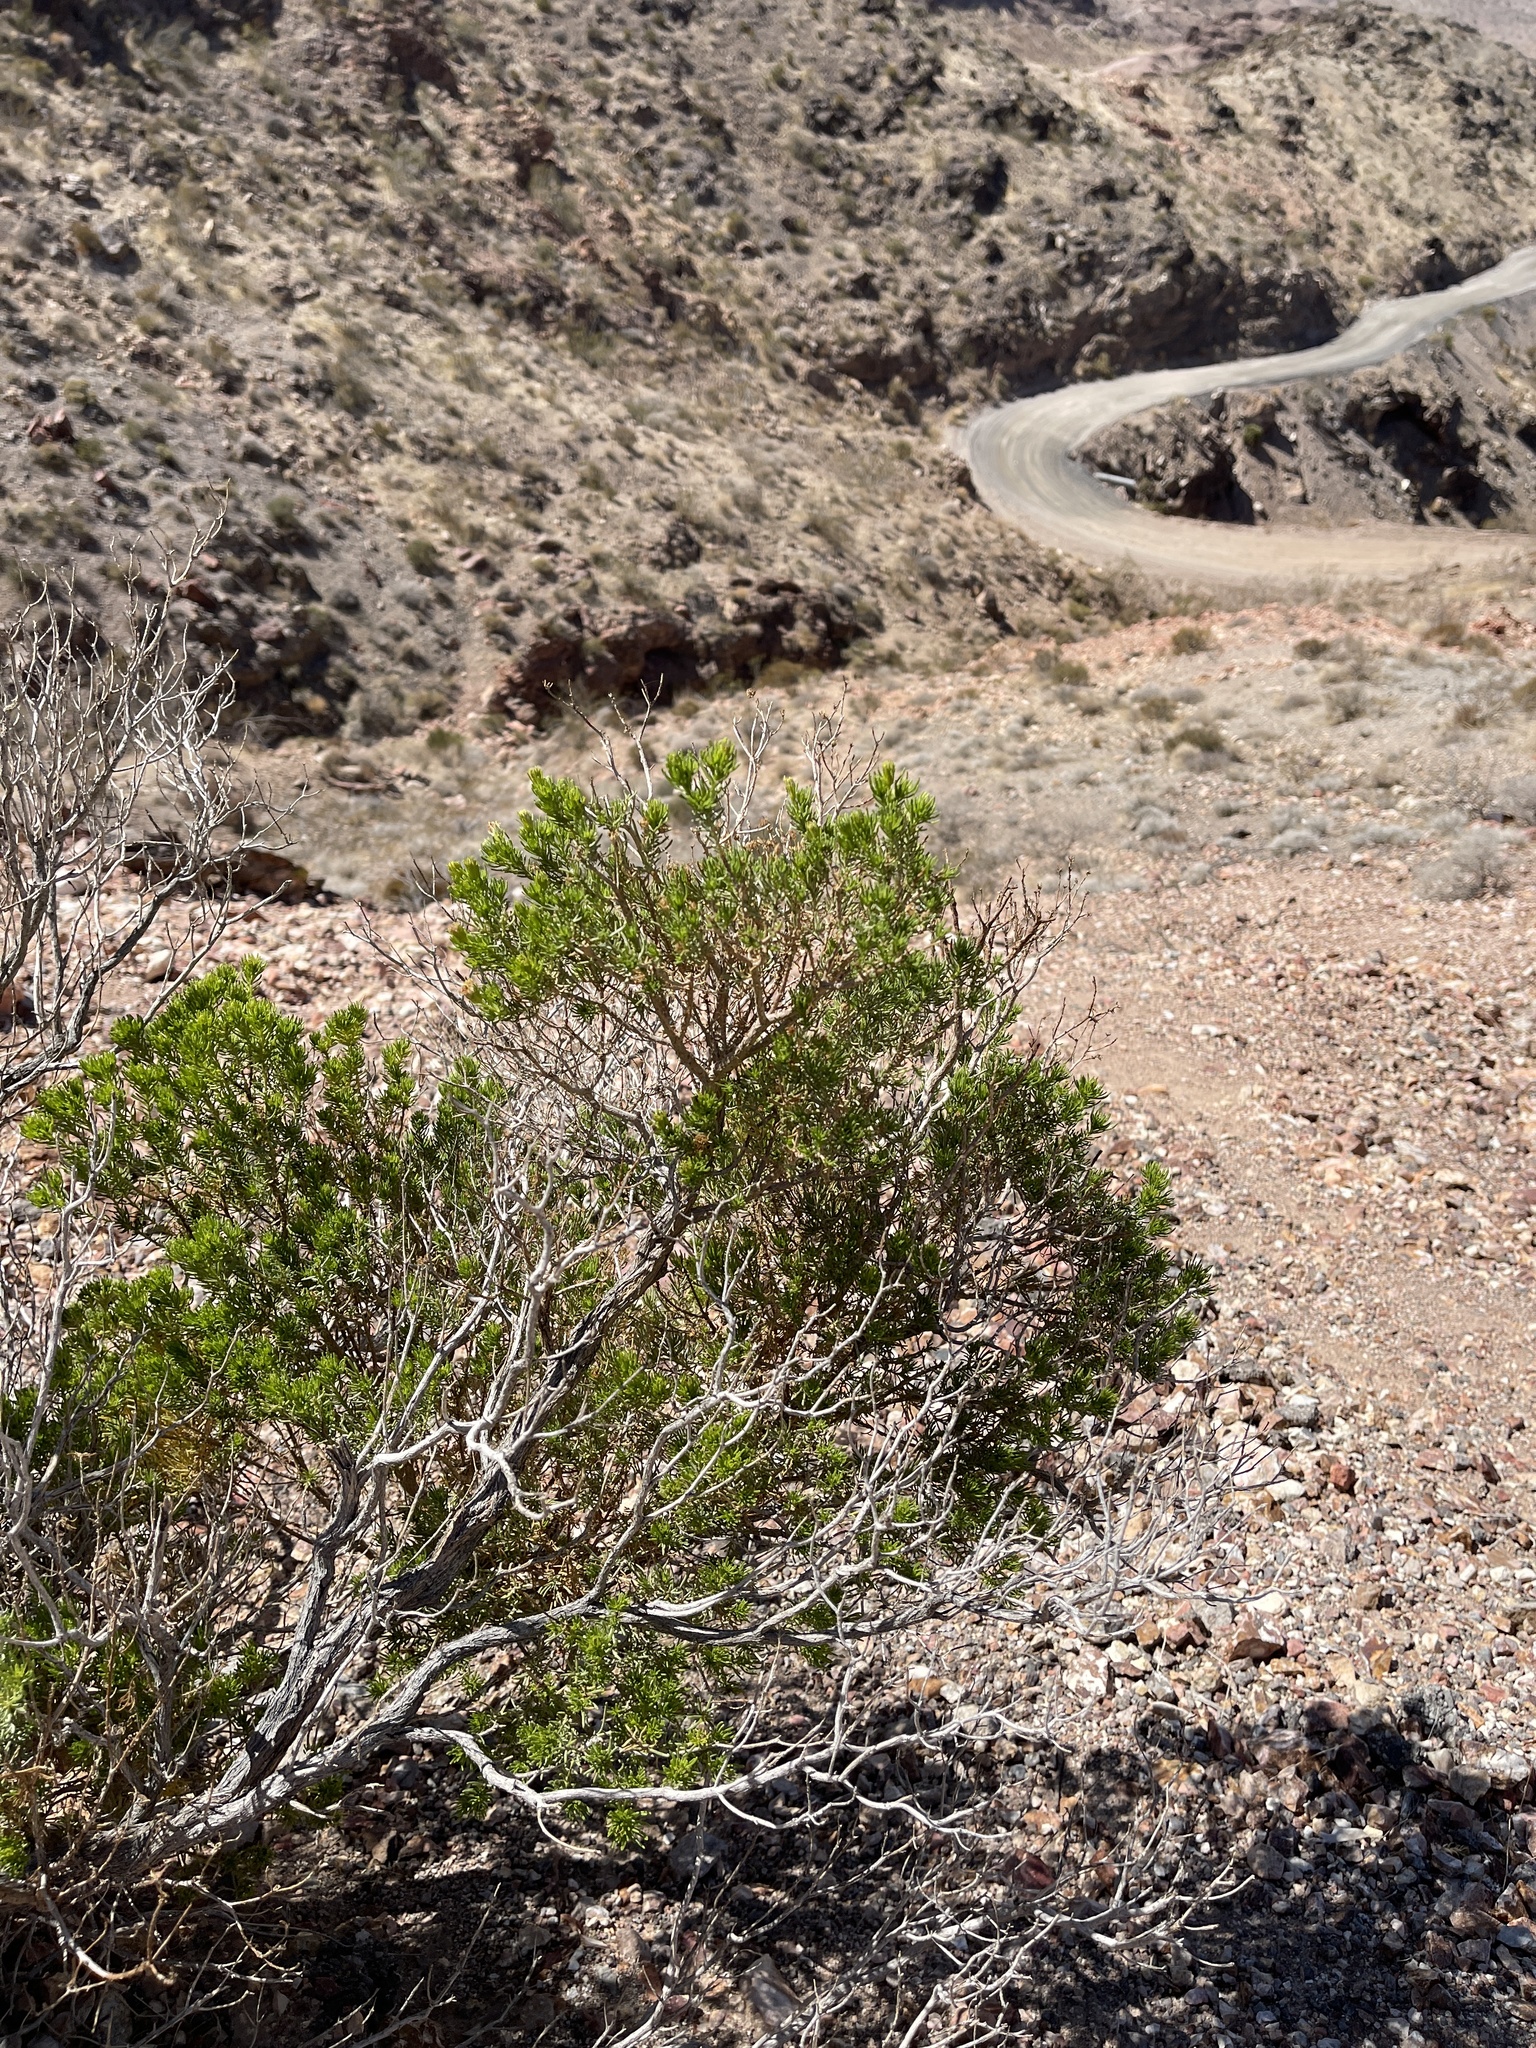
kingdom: Plantae
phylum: Tracheophyta
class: Magnoliopsida
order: Asterales
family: Asteraceae
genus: Peucephyllum
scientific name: Peucephyllum schottii
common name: Pygmy-cedar
